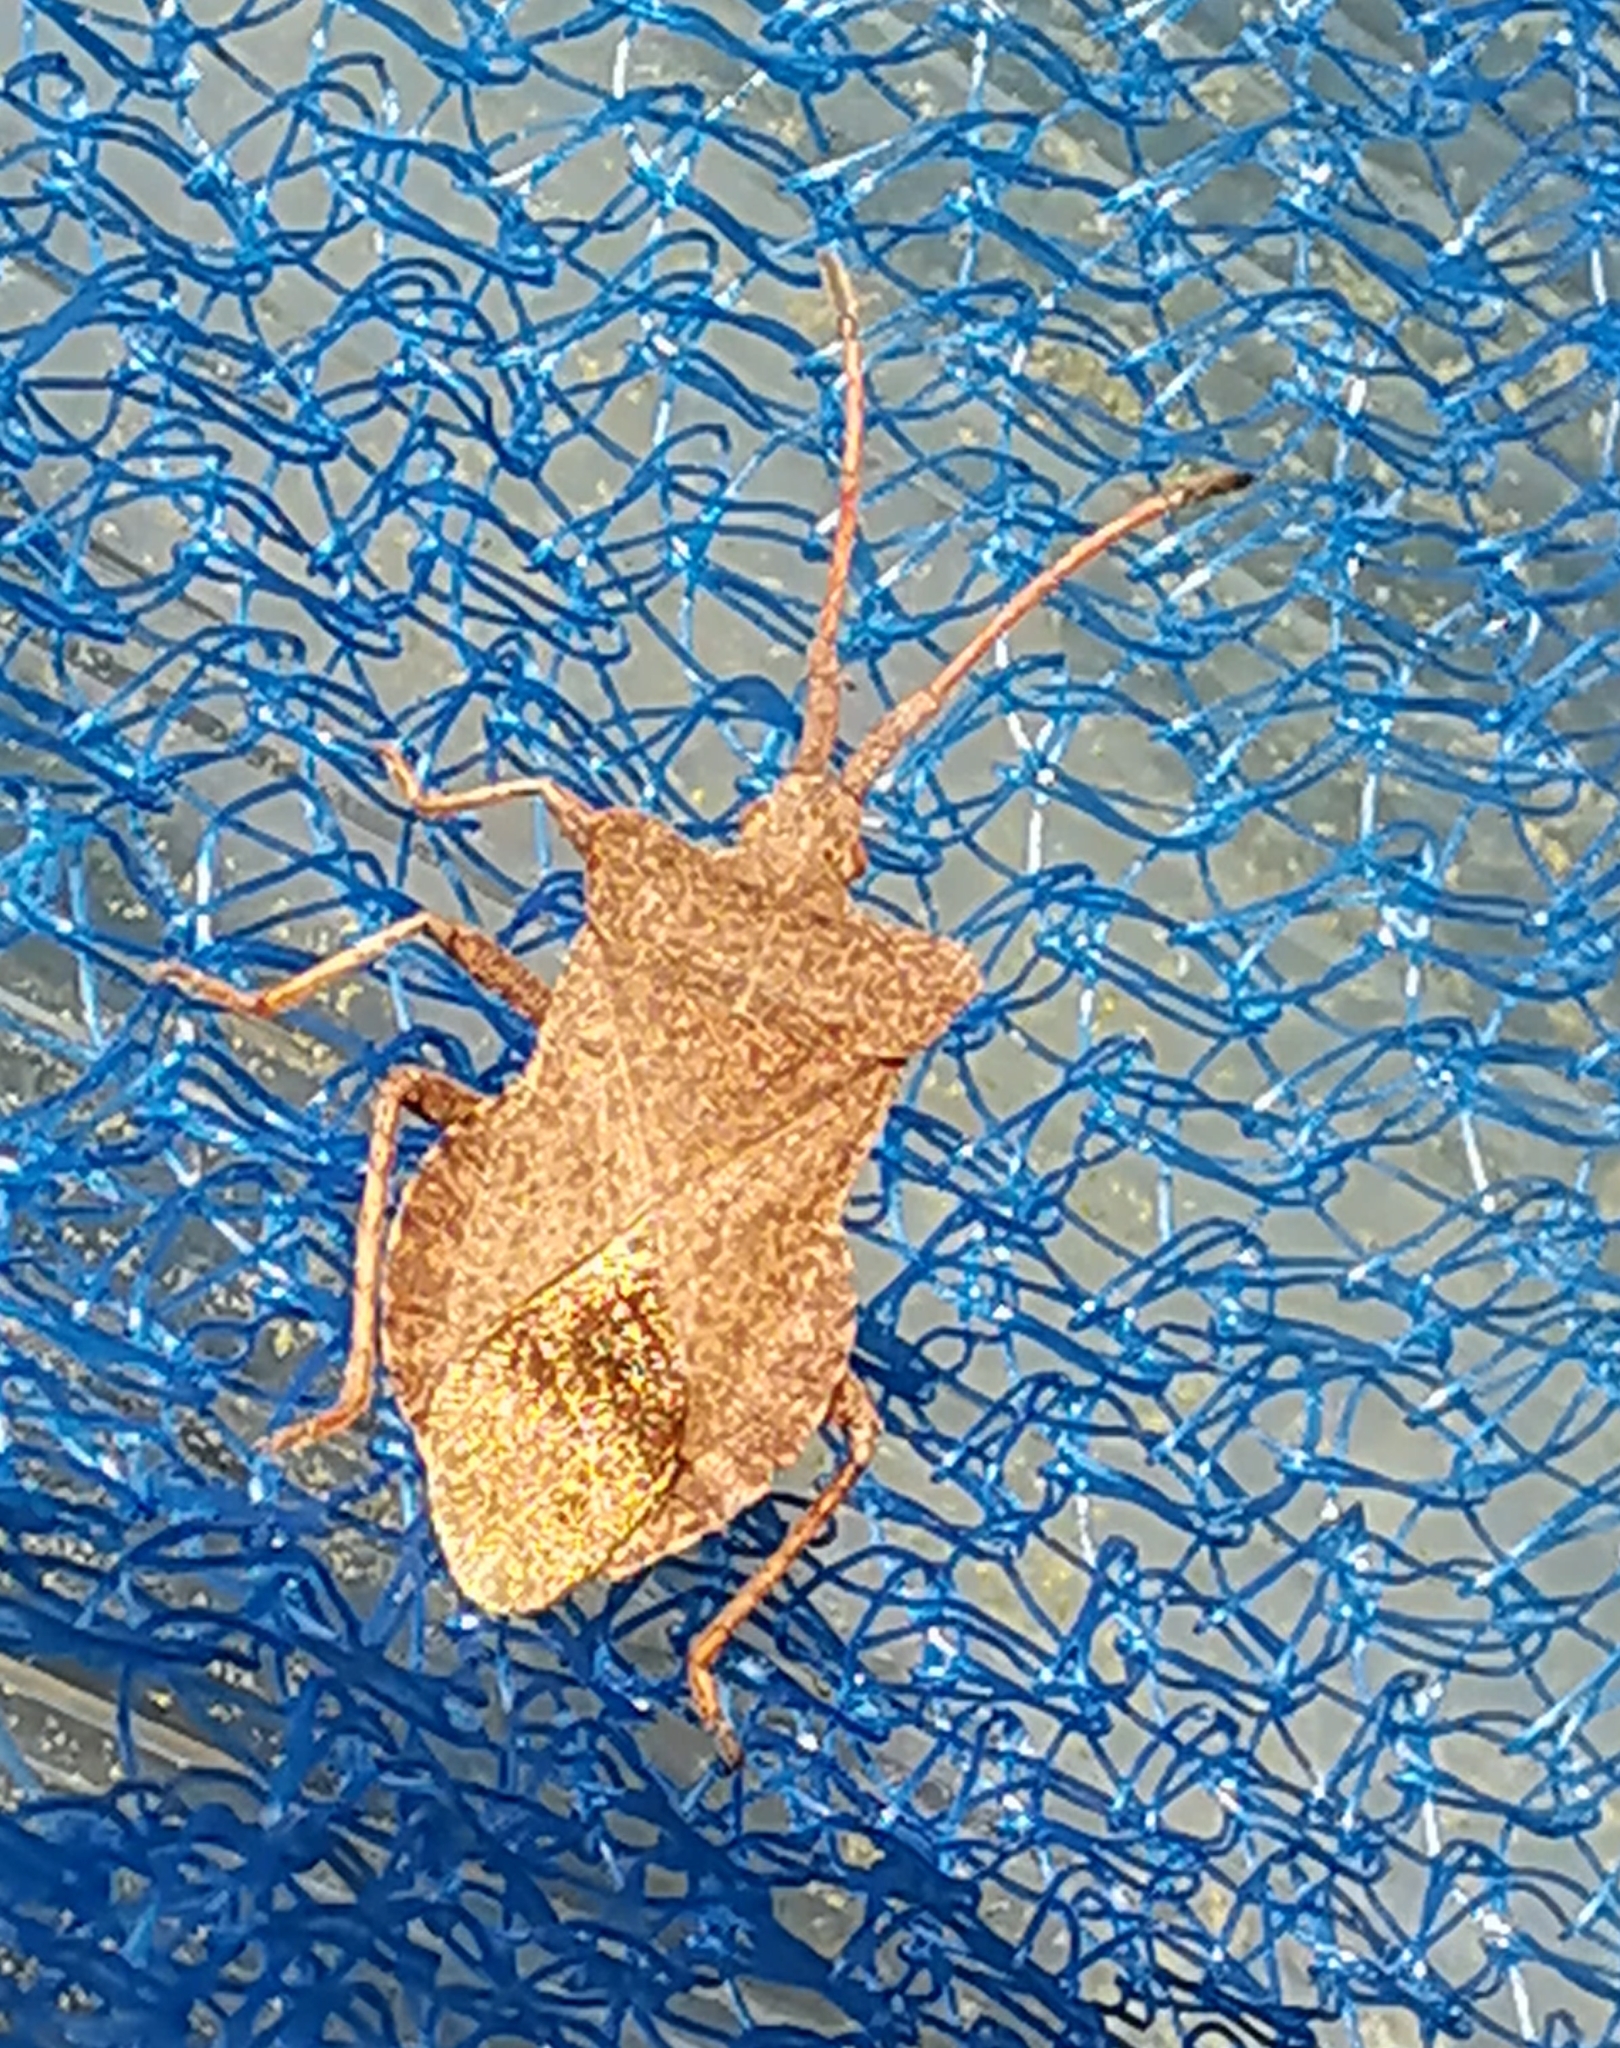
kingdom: Animalia
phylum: Arthropoda
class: Insecta
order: Hemiptera
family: Coreidae
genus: Coreus
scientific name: Coreus marginatus
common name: Dock bug
